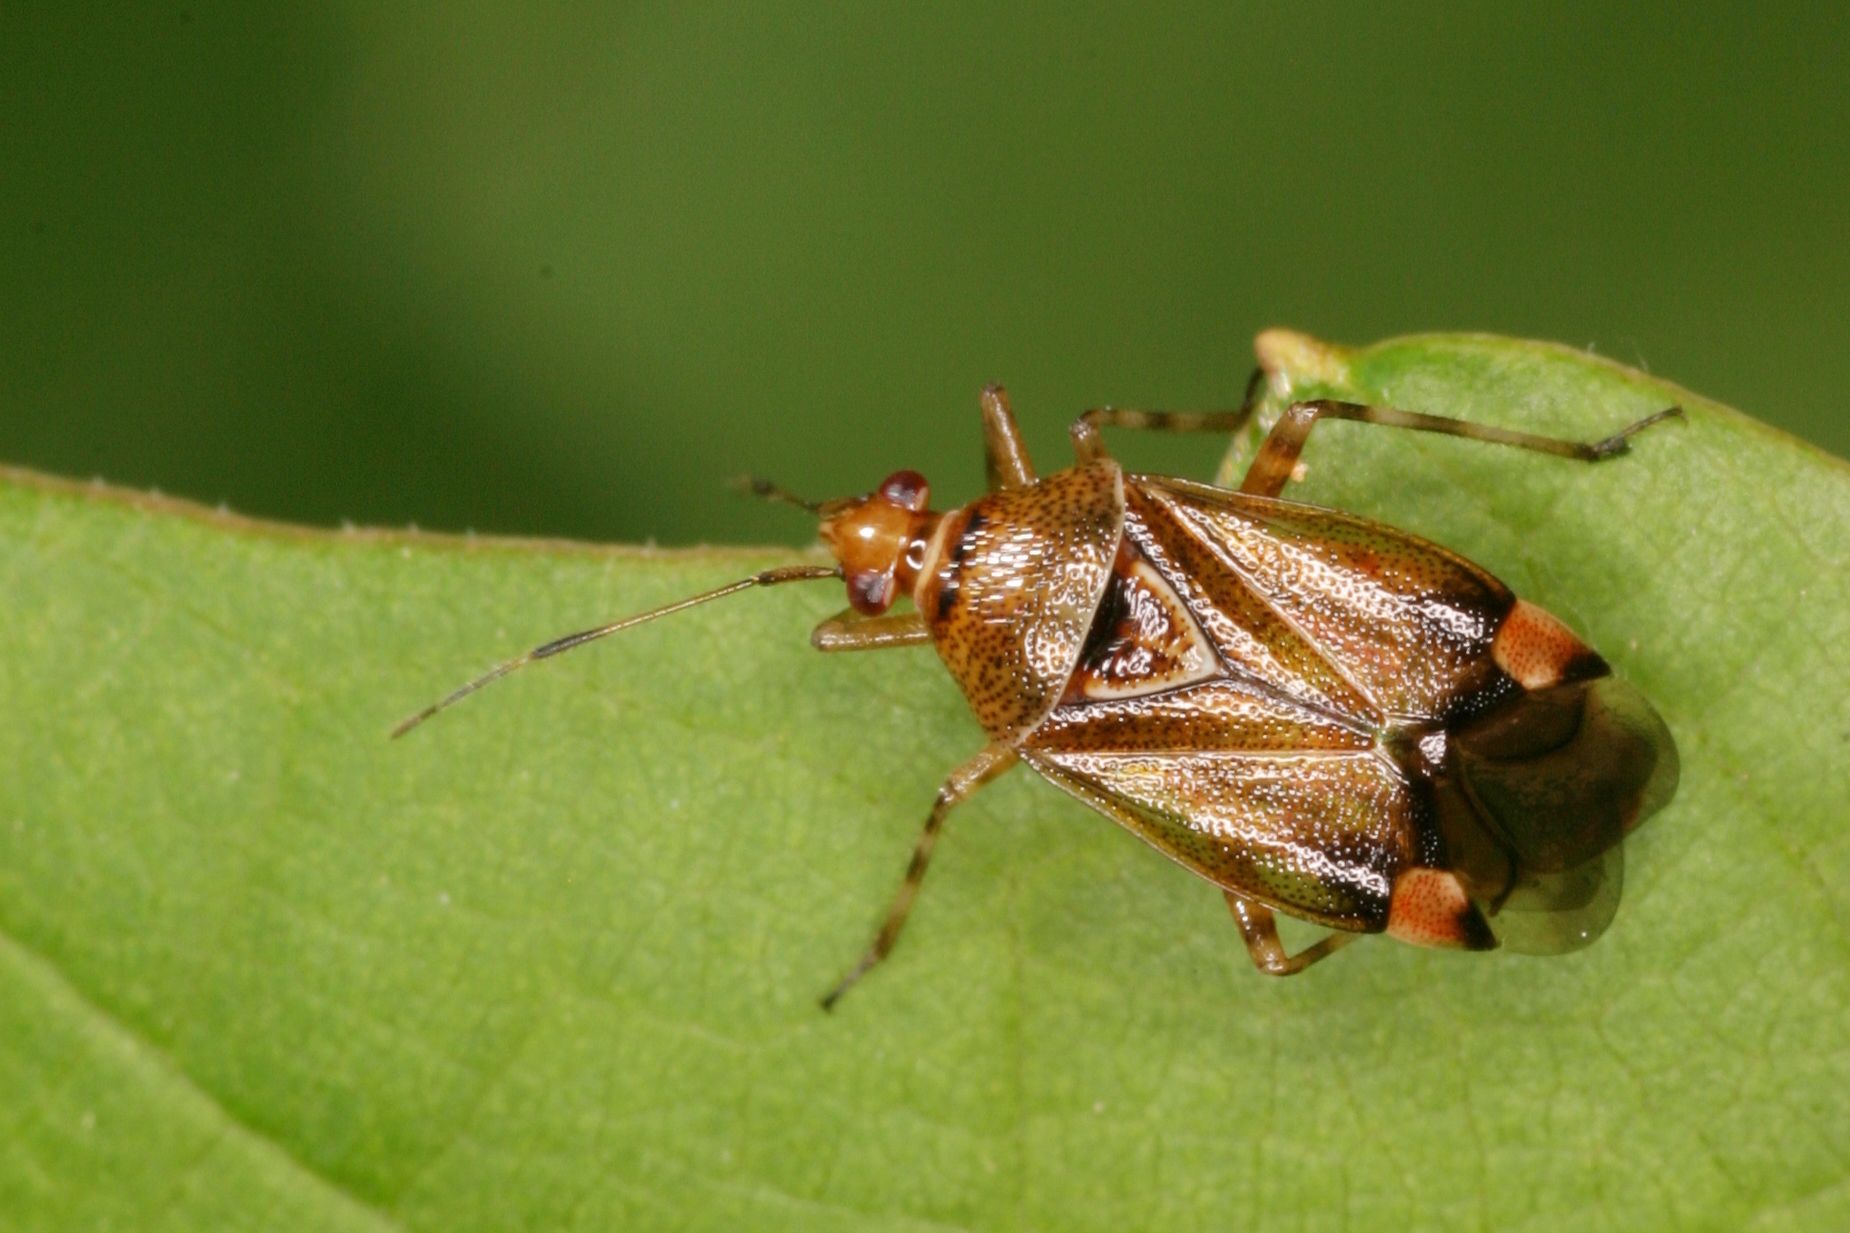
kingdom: Animalia
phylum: Arthropoda
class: Insecta
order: Hemiptera
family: Miridae
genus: Deraeocoris
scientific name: Deraeocoris flavilinea
